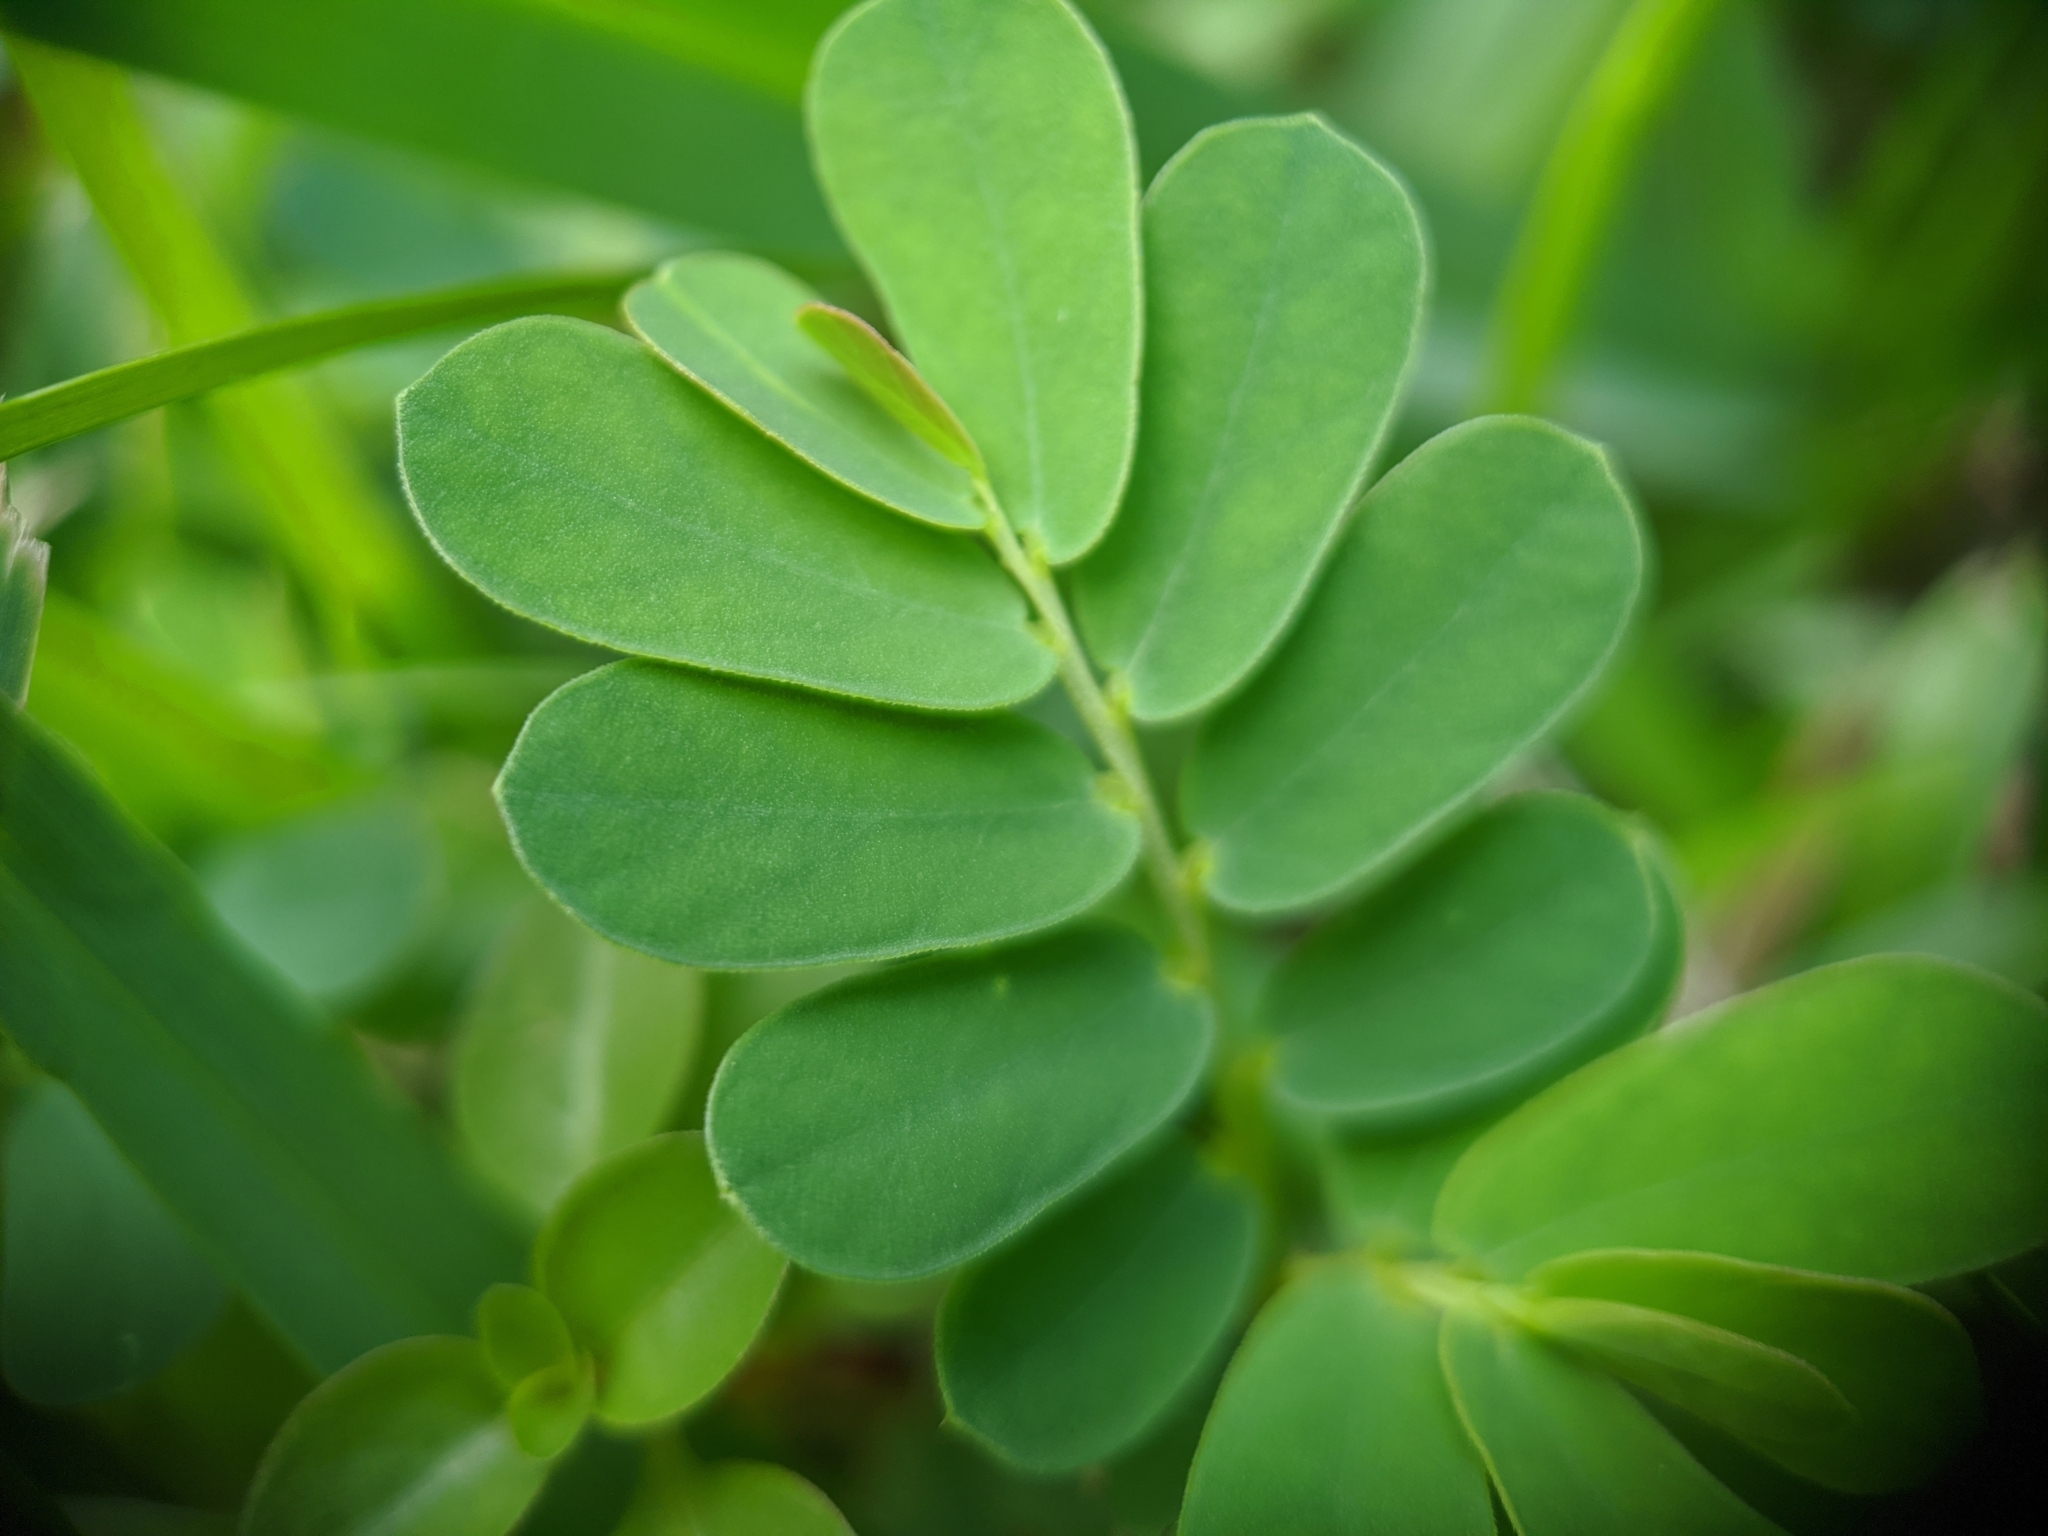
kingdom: Plantae
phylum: Tracheophyta
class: Magnoliopsida
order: Malpighiales
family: Phyllanthaceae
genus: Phyllanthus
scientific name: Phyllanthus urinaria
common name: Chamber bitter
